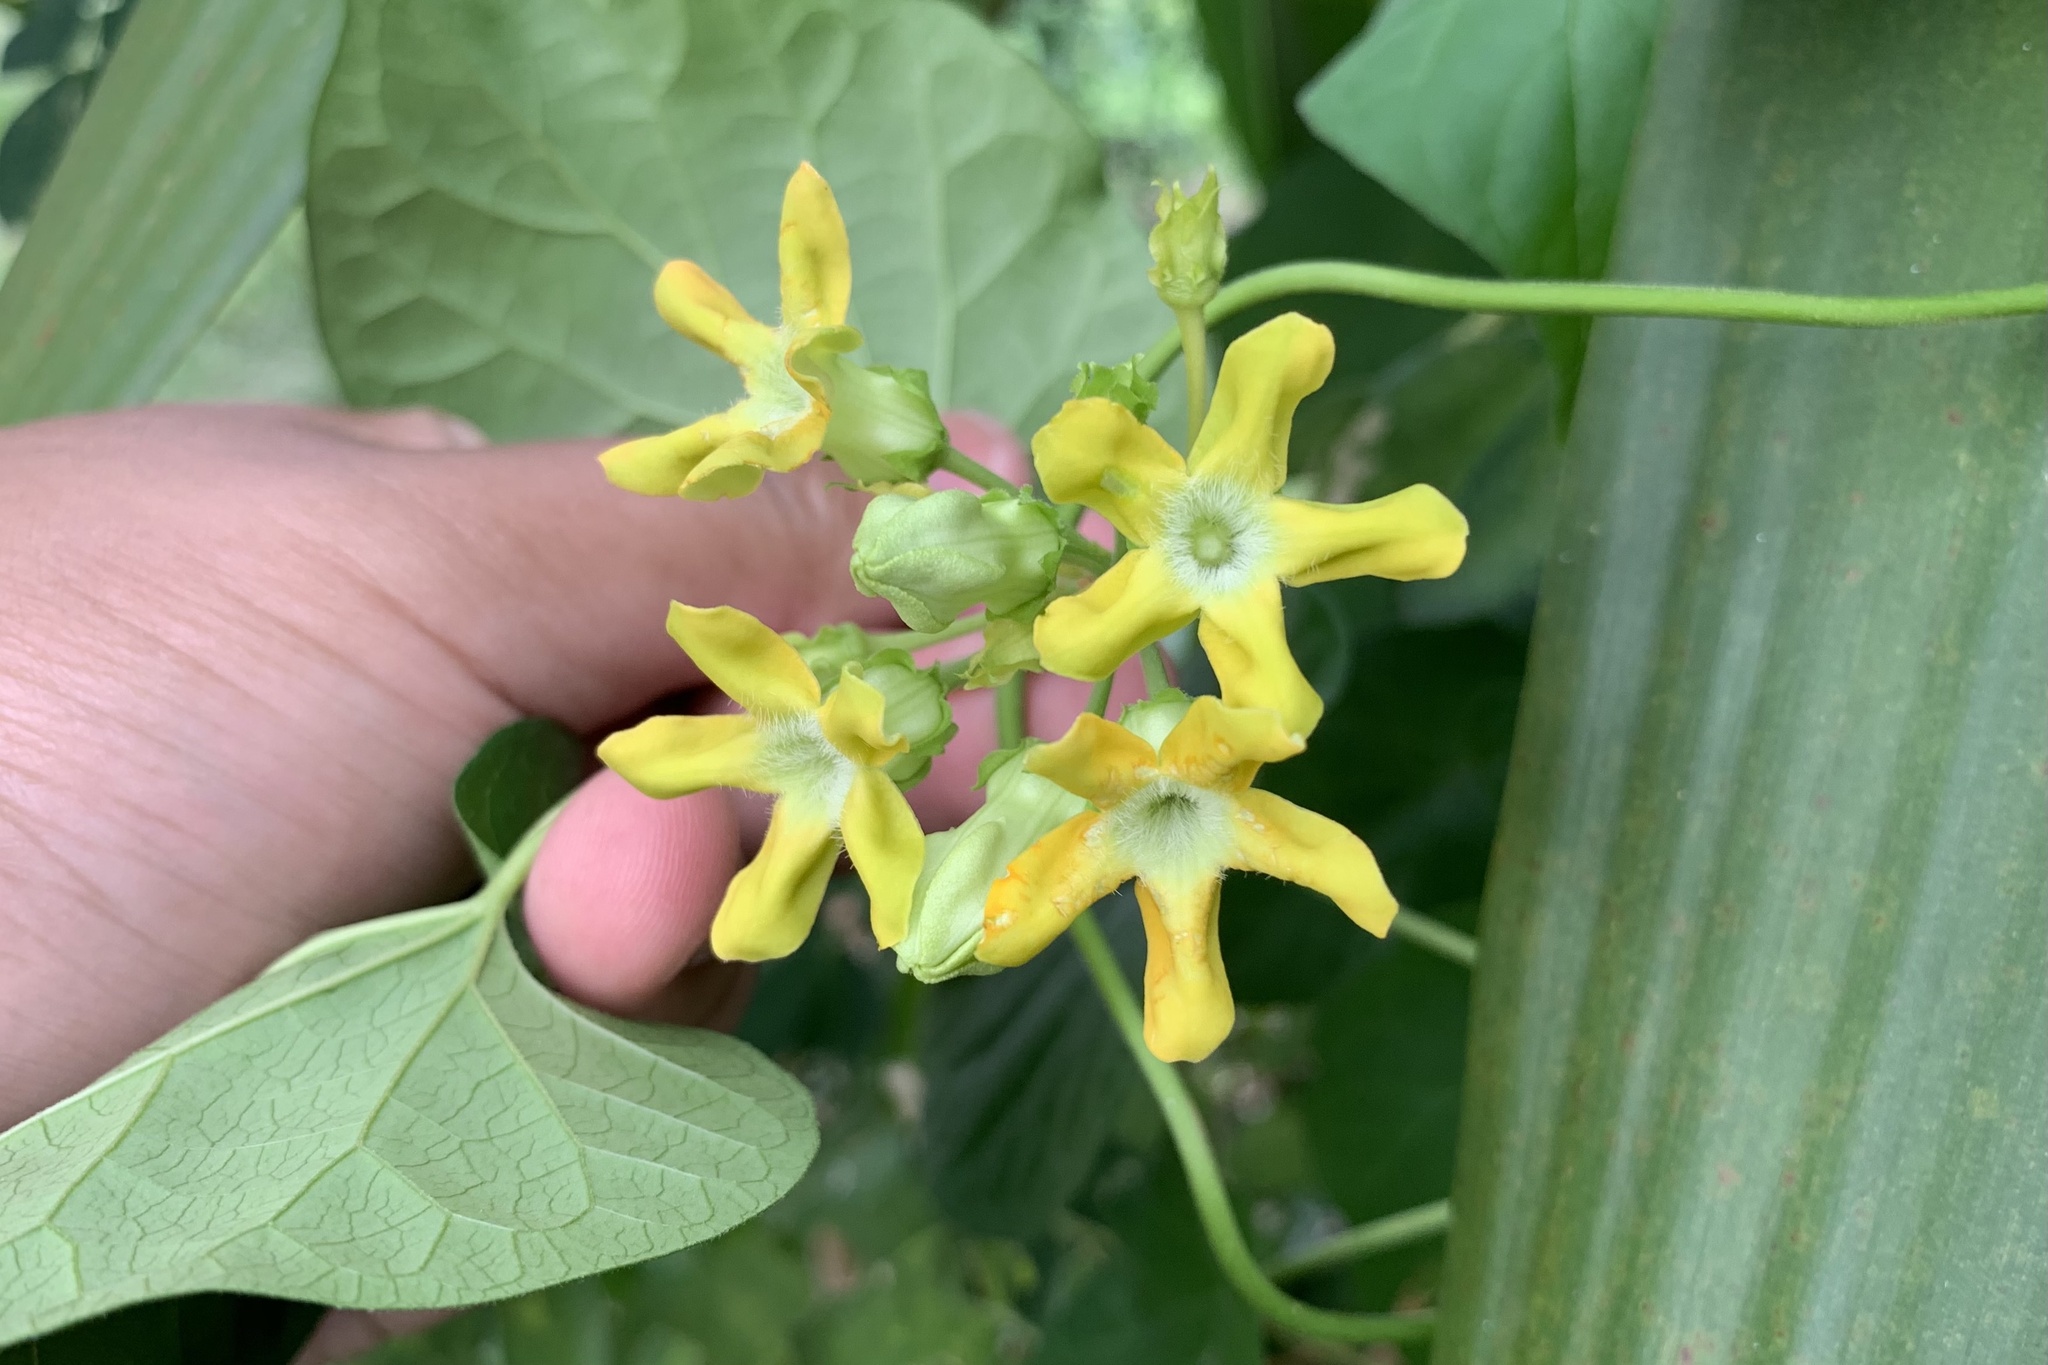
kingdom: Plantae
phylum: Tracheophyta
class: Magnoliopsida
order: Gentianales
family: Apocynaceae
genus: Telosma
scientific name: Telosma cordata
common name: Chinese-violet
